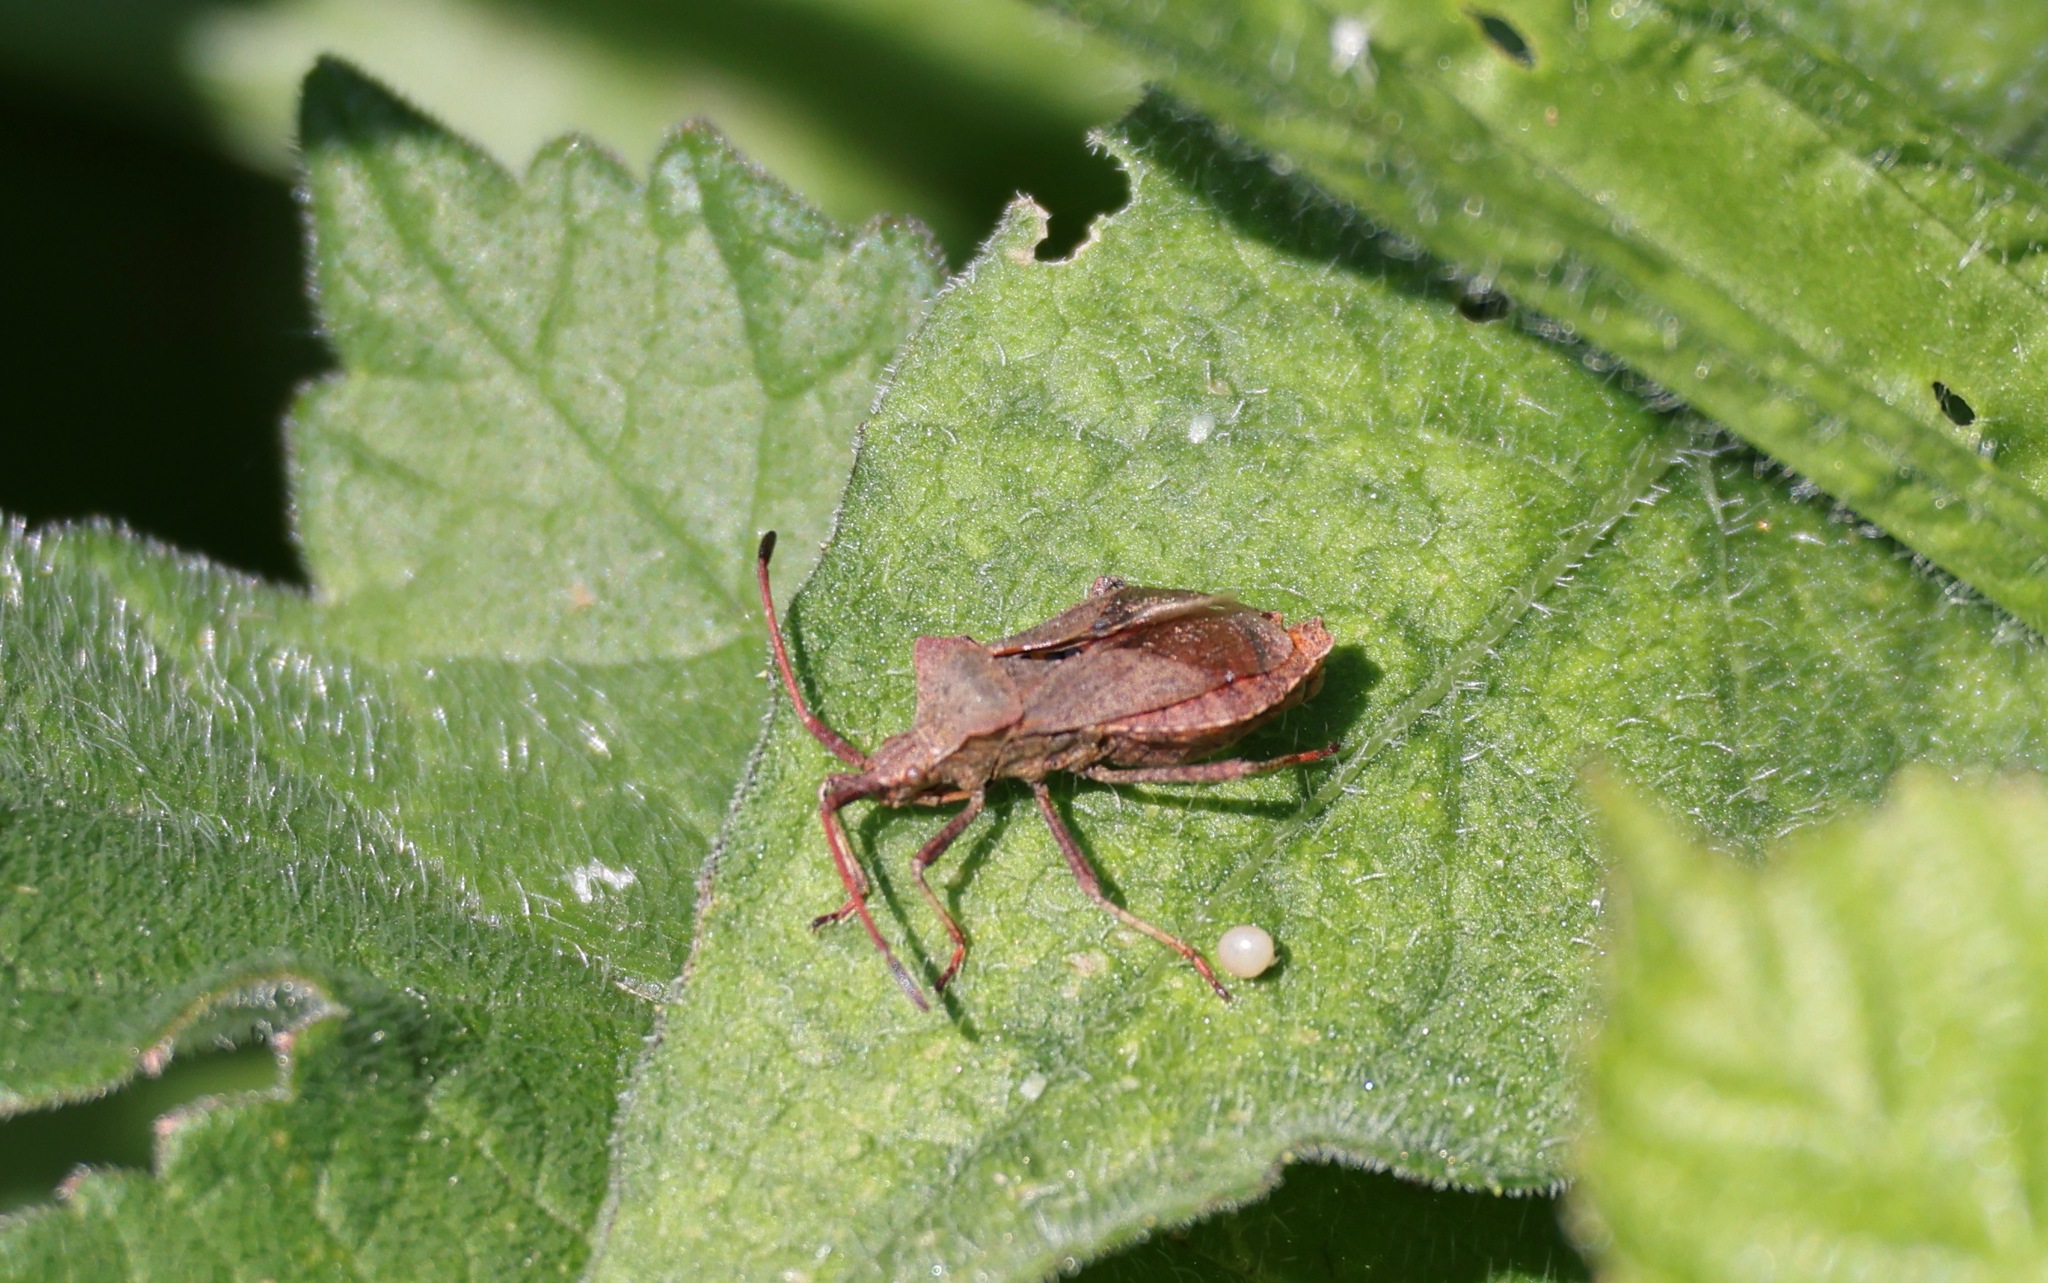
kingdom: Animalia
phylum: Arthropoda
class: Insecta
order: Hemiptera
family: Coreidae
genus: Coreus
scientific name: Coreus marginatus
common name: Dock bug
